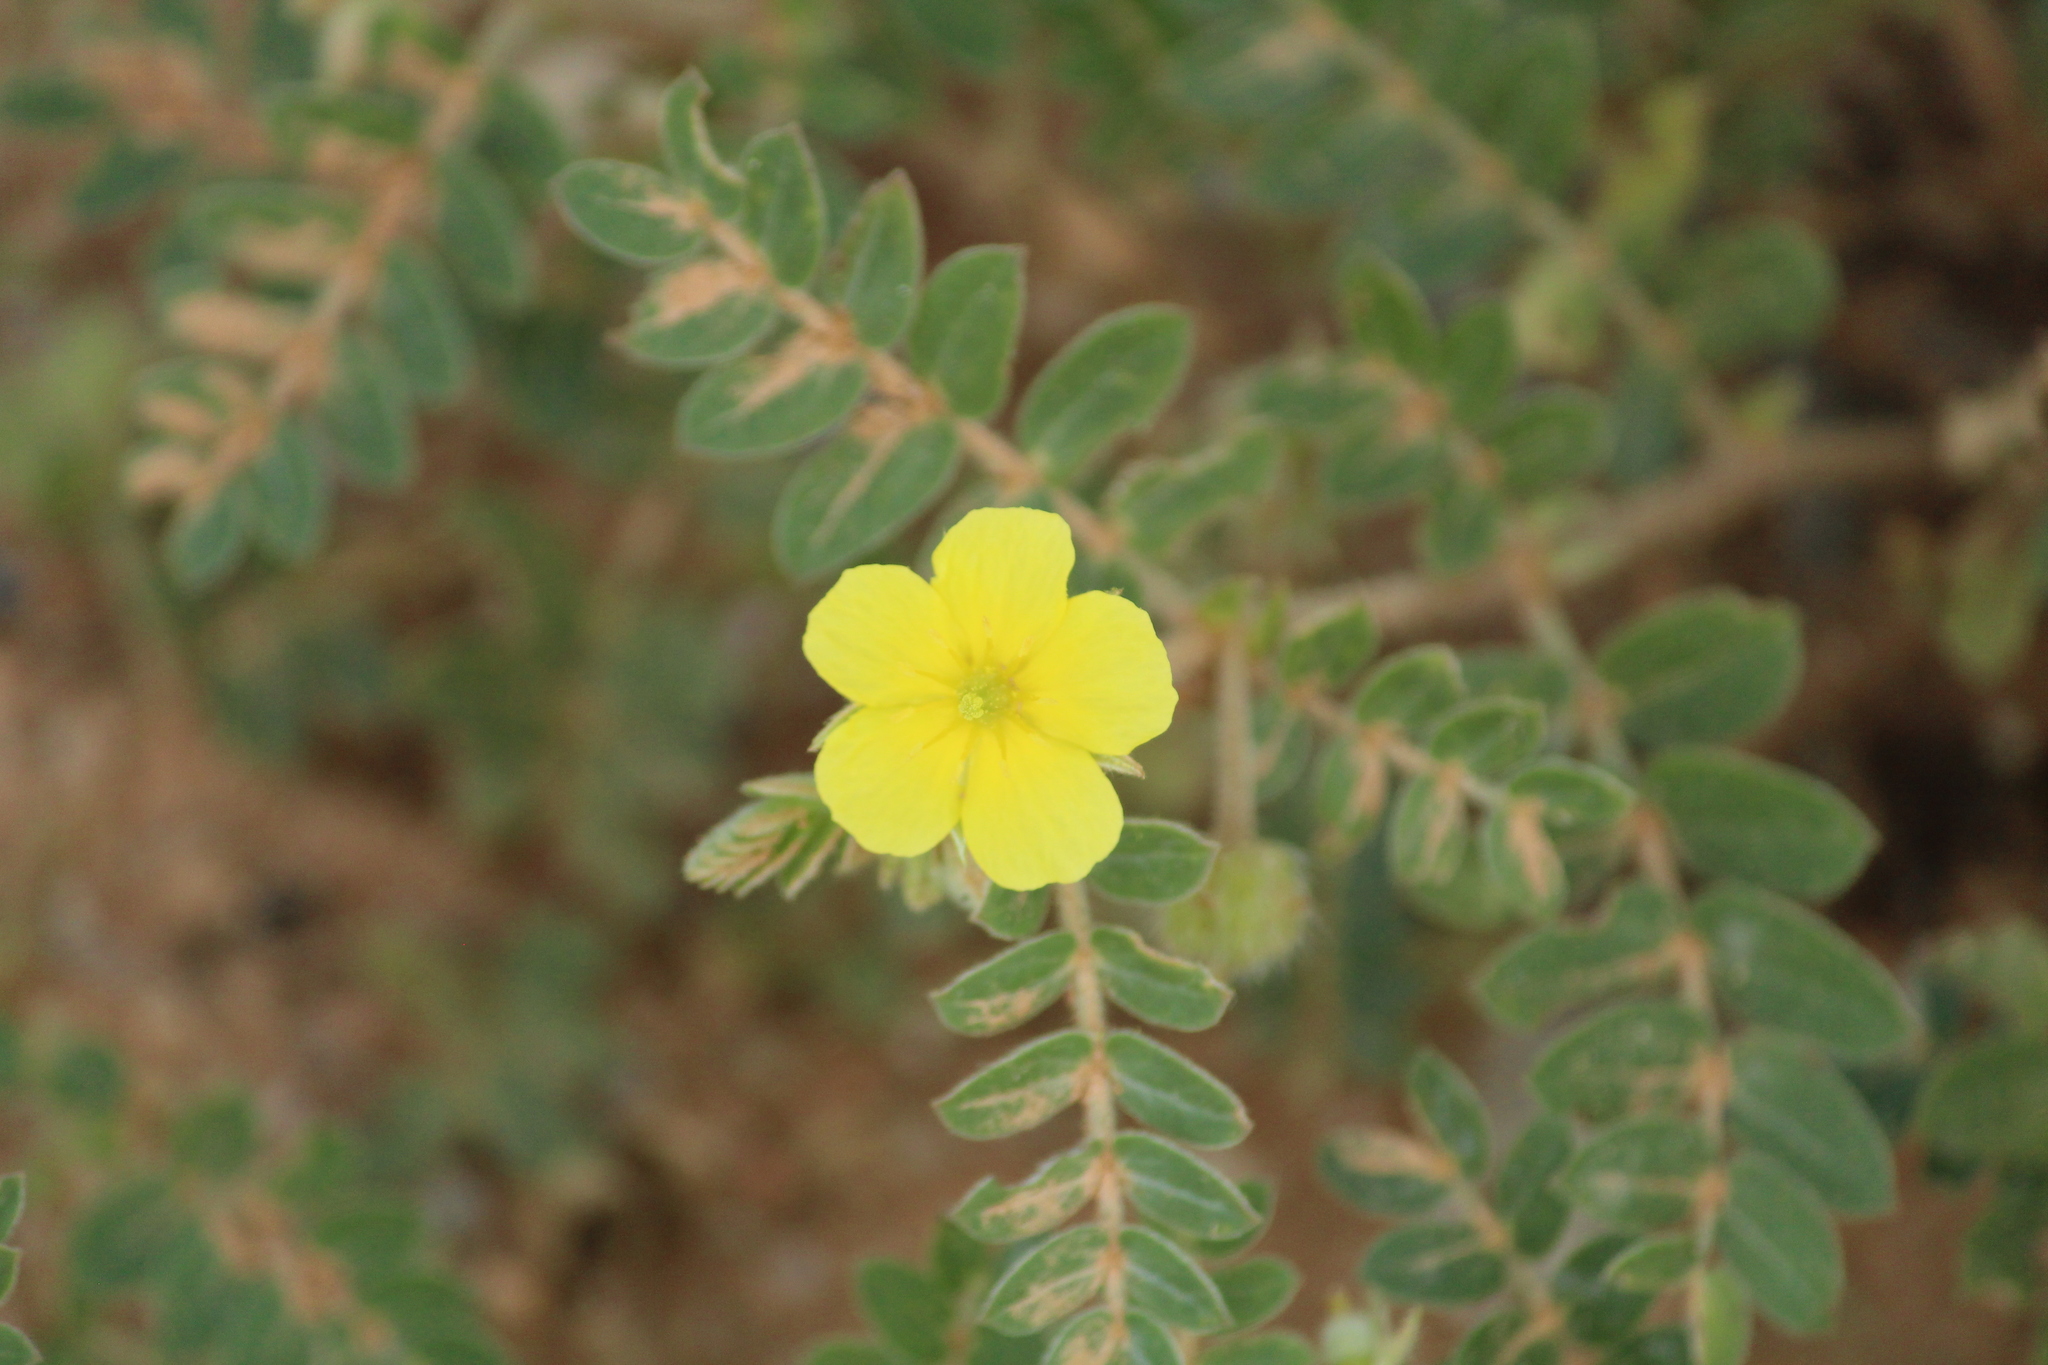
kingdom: Plantae
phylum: Tracheophyta
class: Magnoliopsida
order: Zygophyllales
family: Zygophyllaceae
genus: Tribulus
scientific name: Tribulus terrestris
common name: Puncturevine
